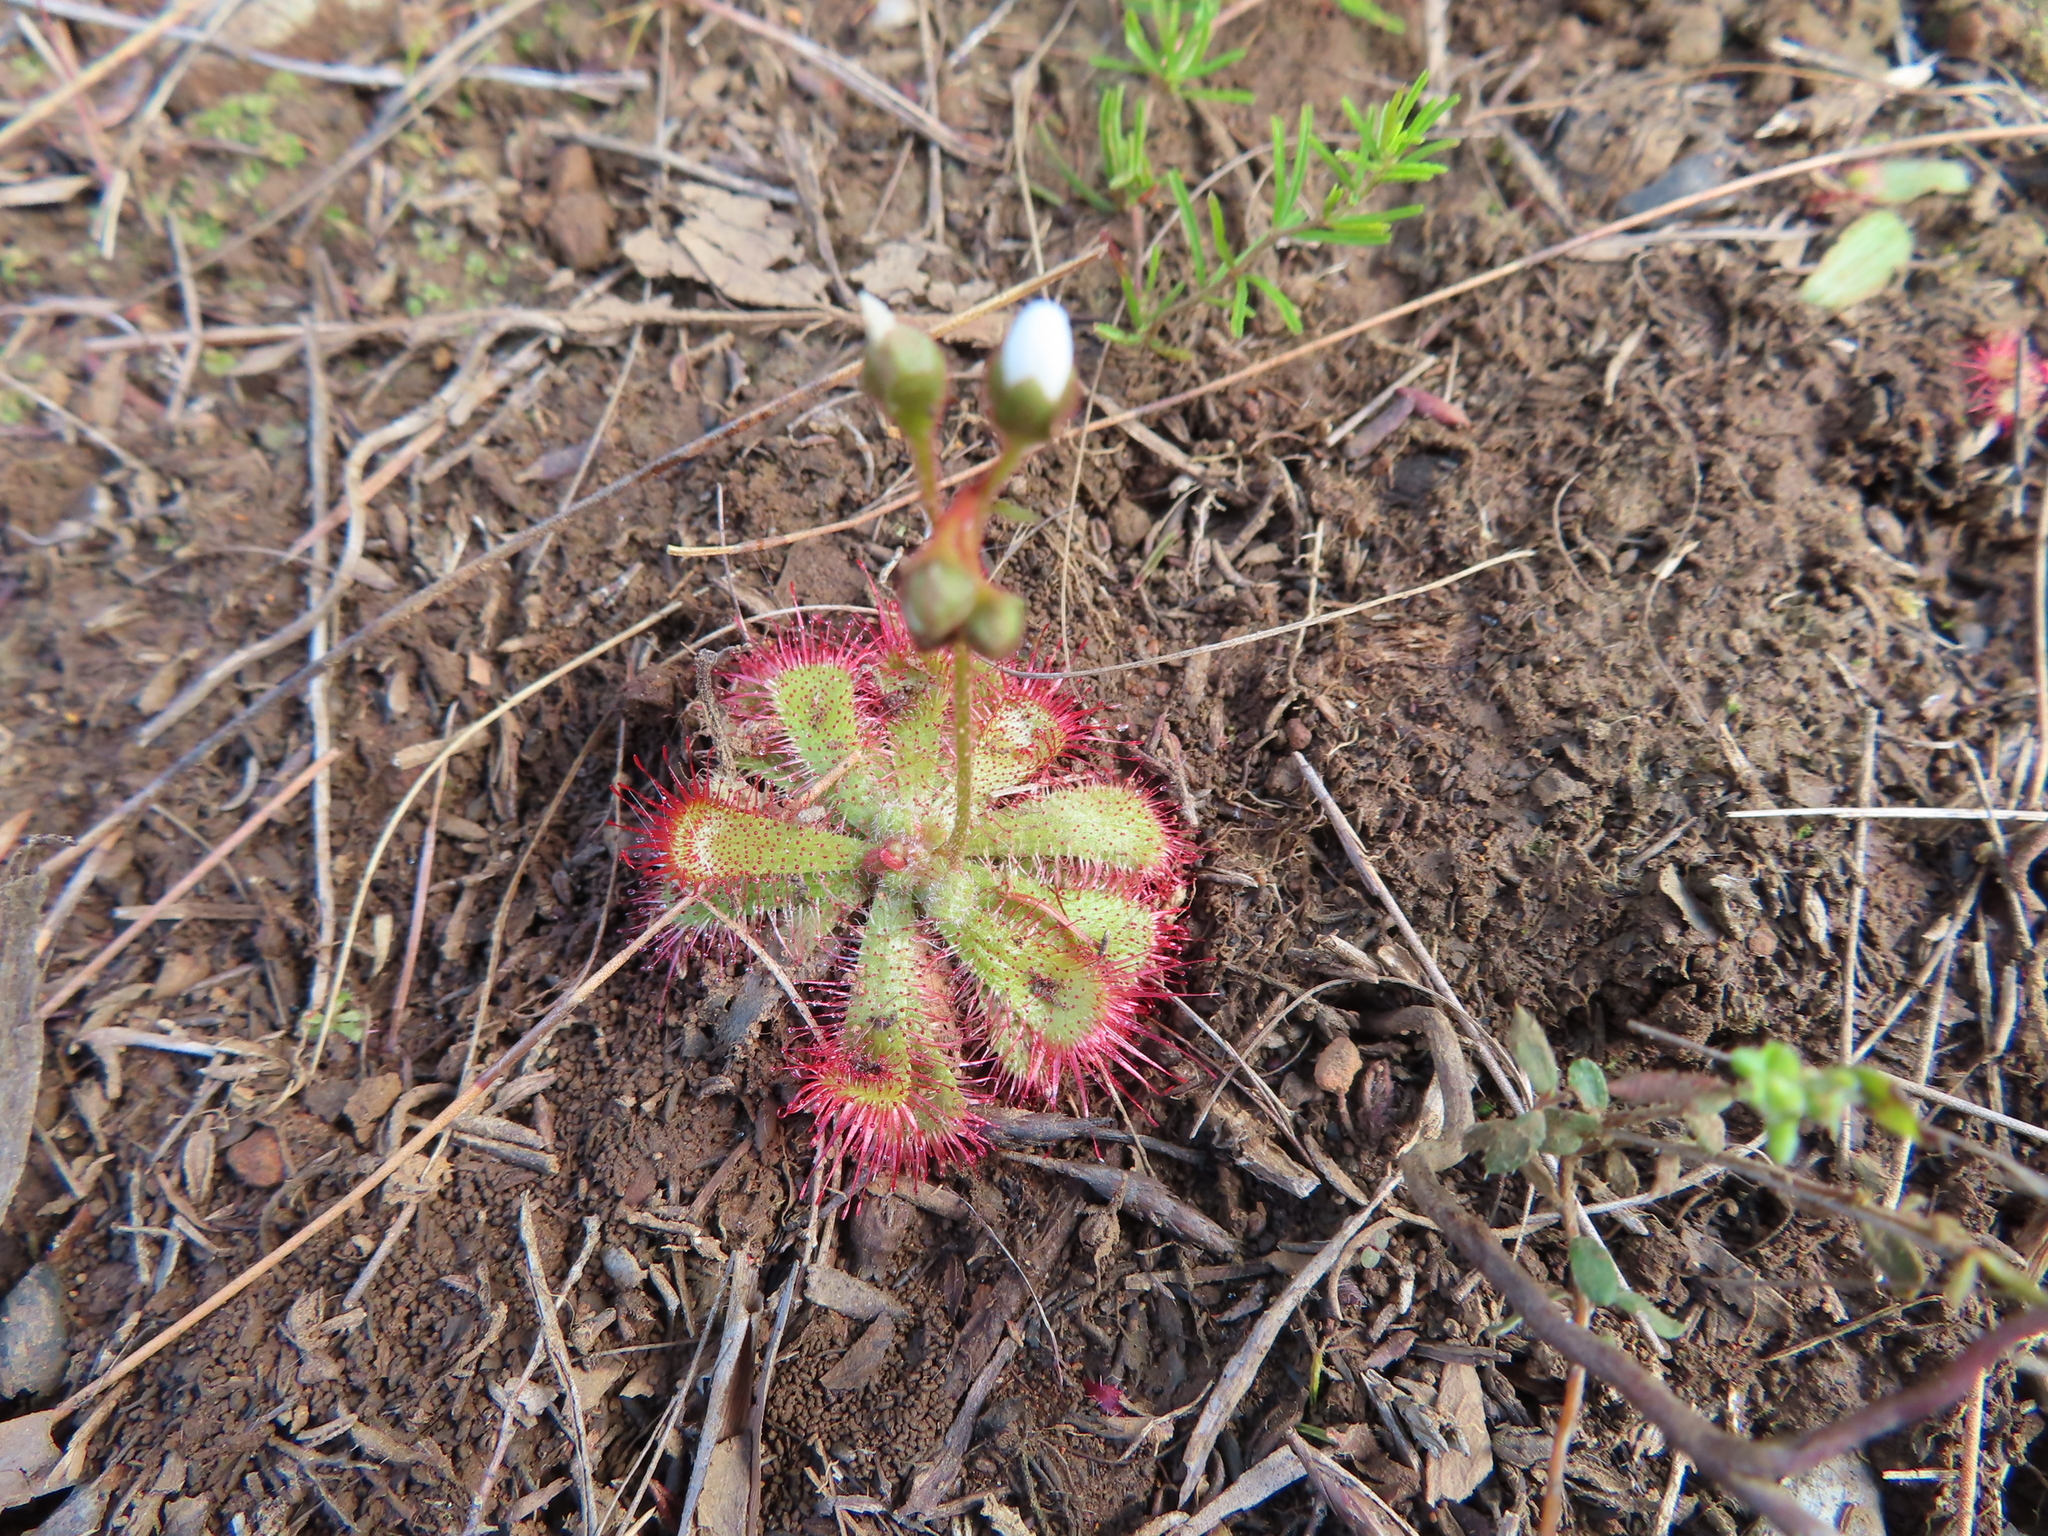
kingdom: Plantae
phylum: Tracheophyta
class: Magnoliopsida
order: Caryophyllales
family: Droseraceae
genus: Drosera
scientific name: Drosera trinervia
